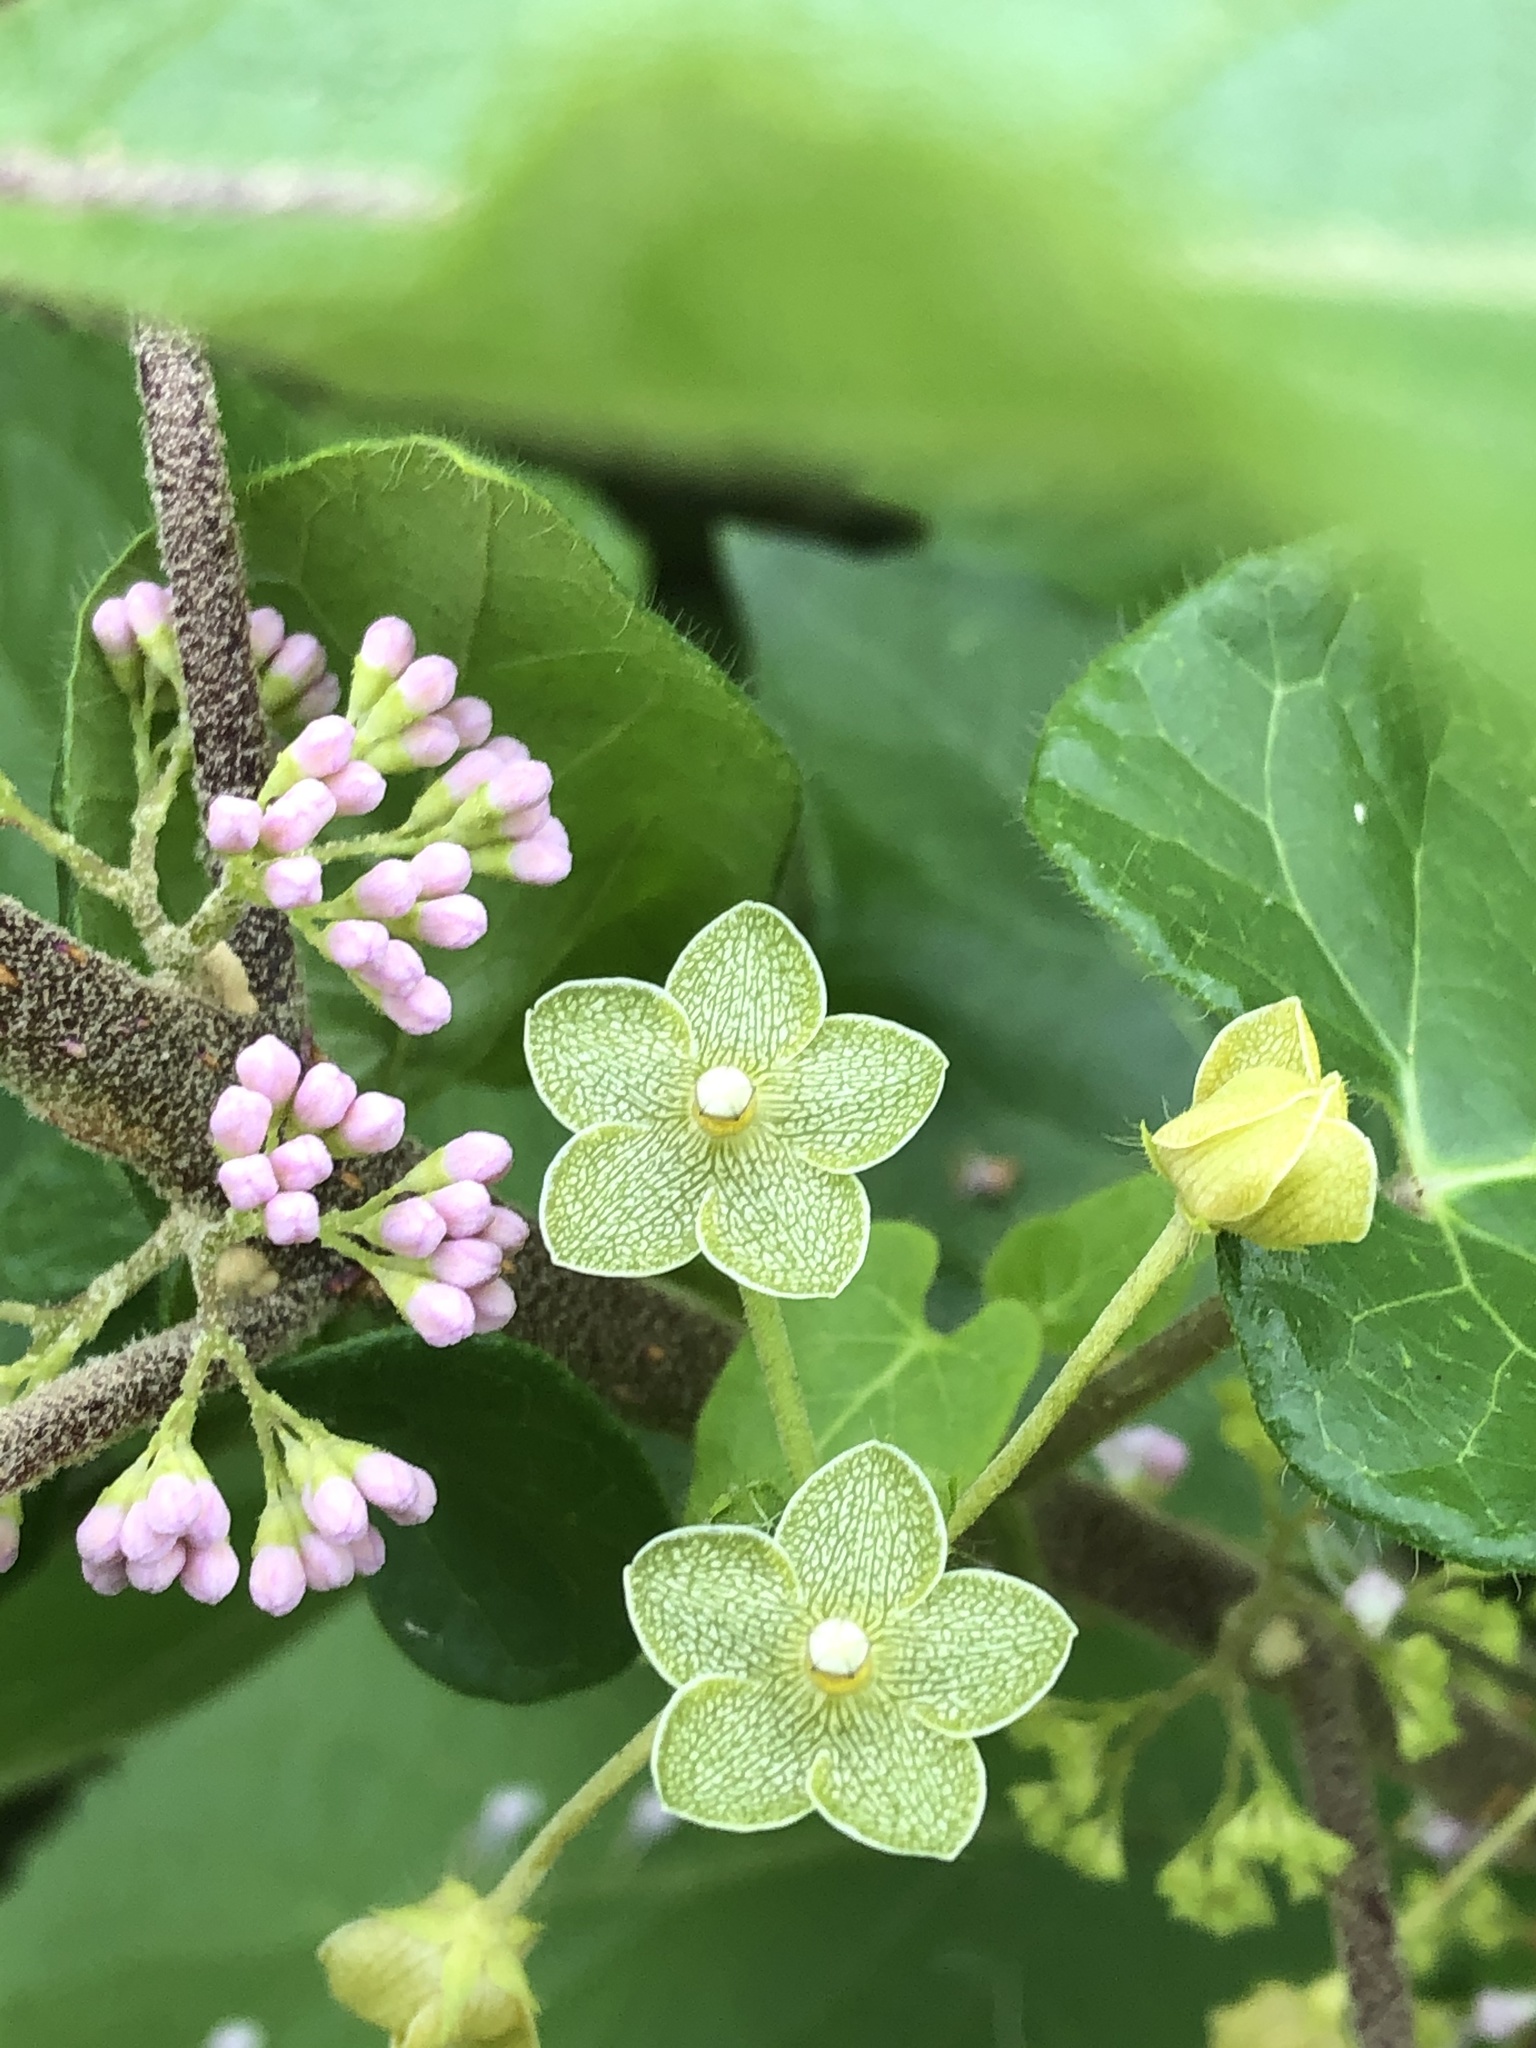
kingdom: Plantae
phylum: Tracheophyta
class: Magnoliopsida
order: Gentianales
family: Apocynaceae
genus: Dictyanthus
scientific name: Dictyanthus reticulatus
